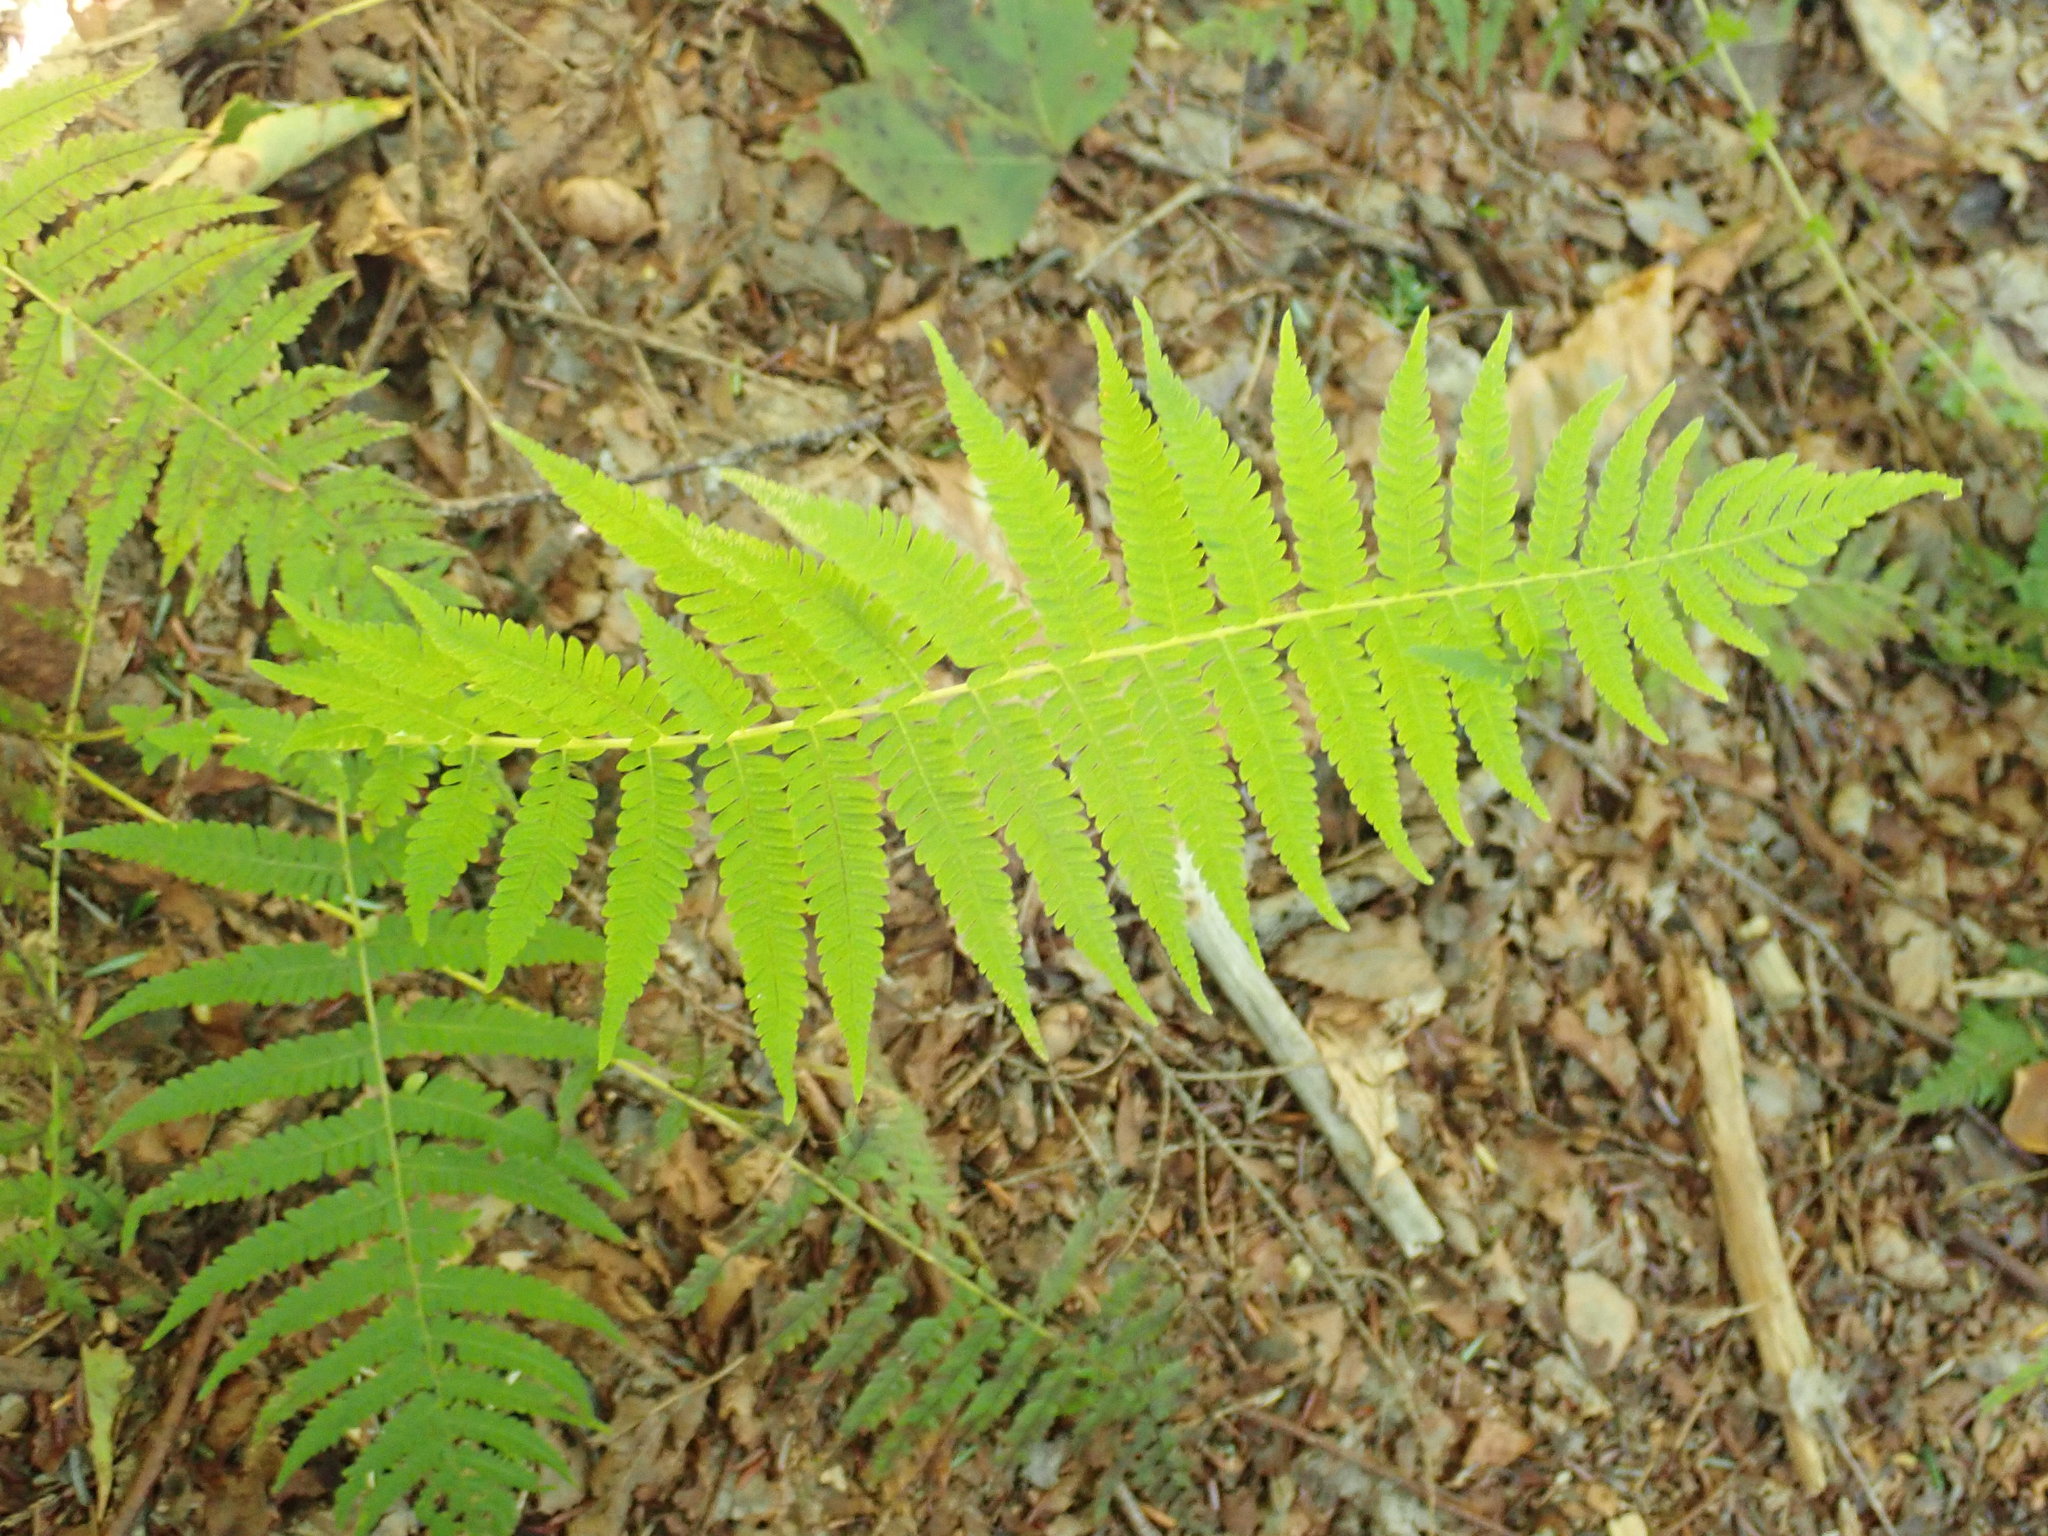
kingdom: Plantae
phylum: Tracheophyta
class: Polypodiopsida
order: Polypodiales
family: Thelypteridaceae
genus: Amauropelta
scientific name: Amauropelta noveboracensis
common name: New york fern
